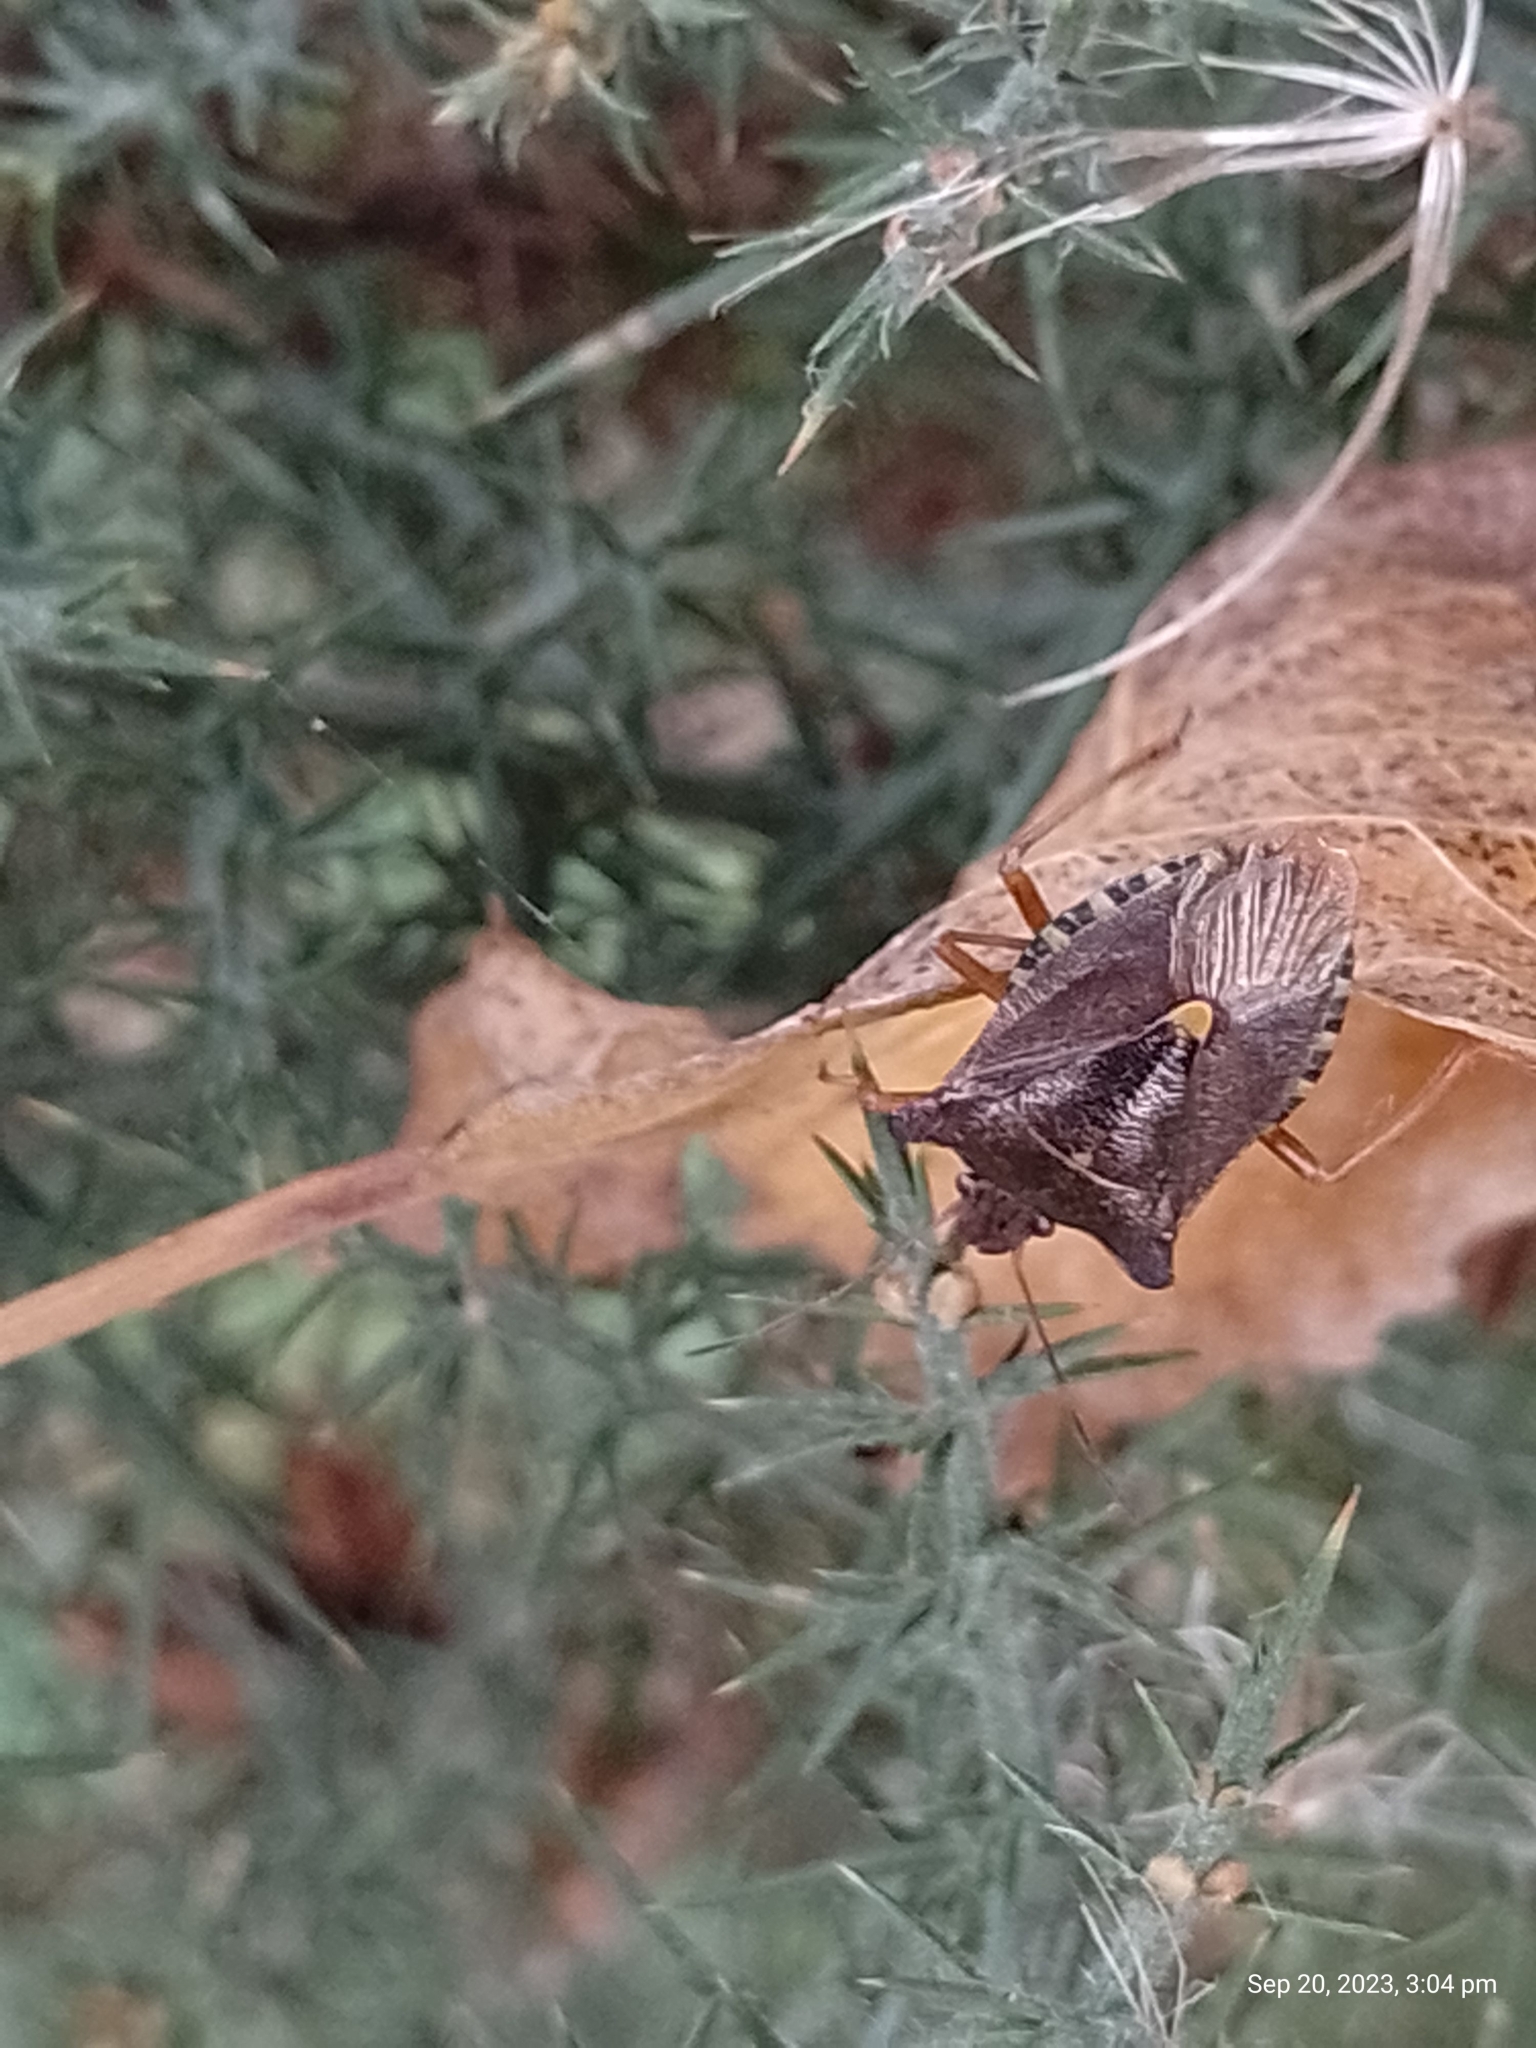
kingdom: Animalia
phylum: Arthropoda
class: Insecta
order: Hemiptera
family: Pentatomidae
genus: Pentatoma
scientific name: Pentatoma rufipes
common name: Forest bug
